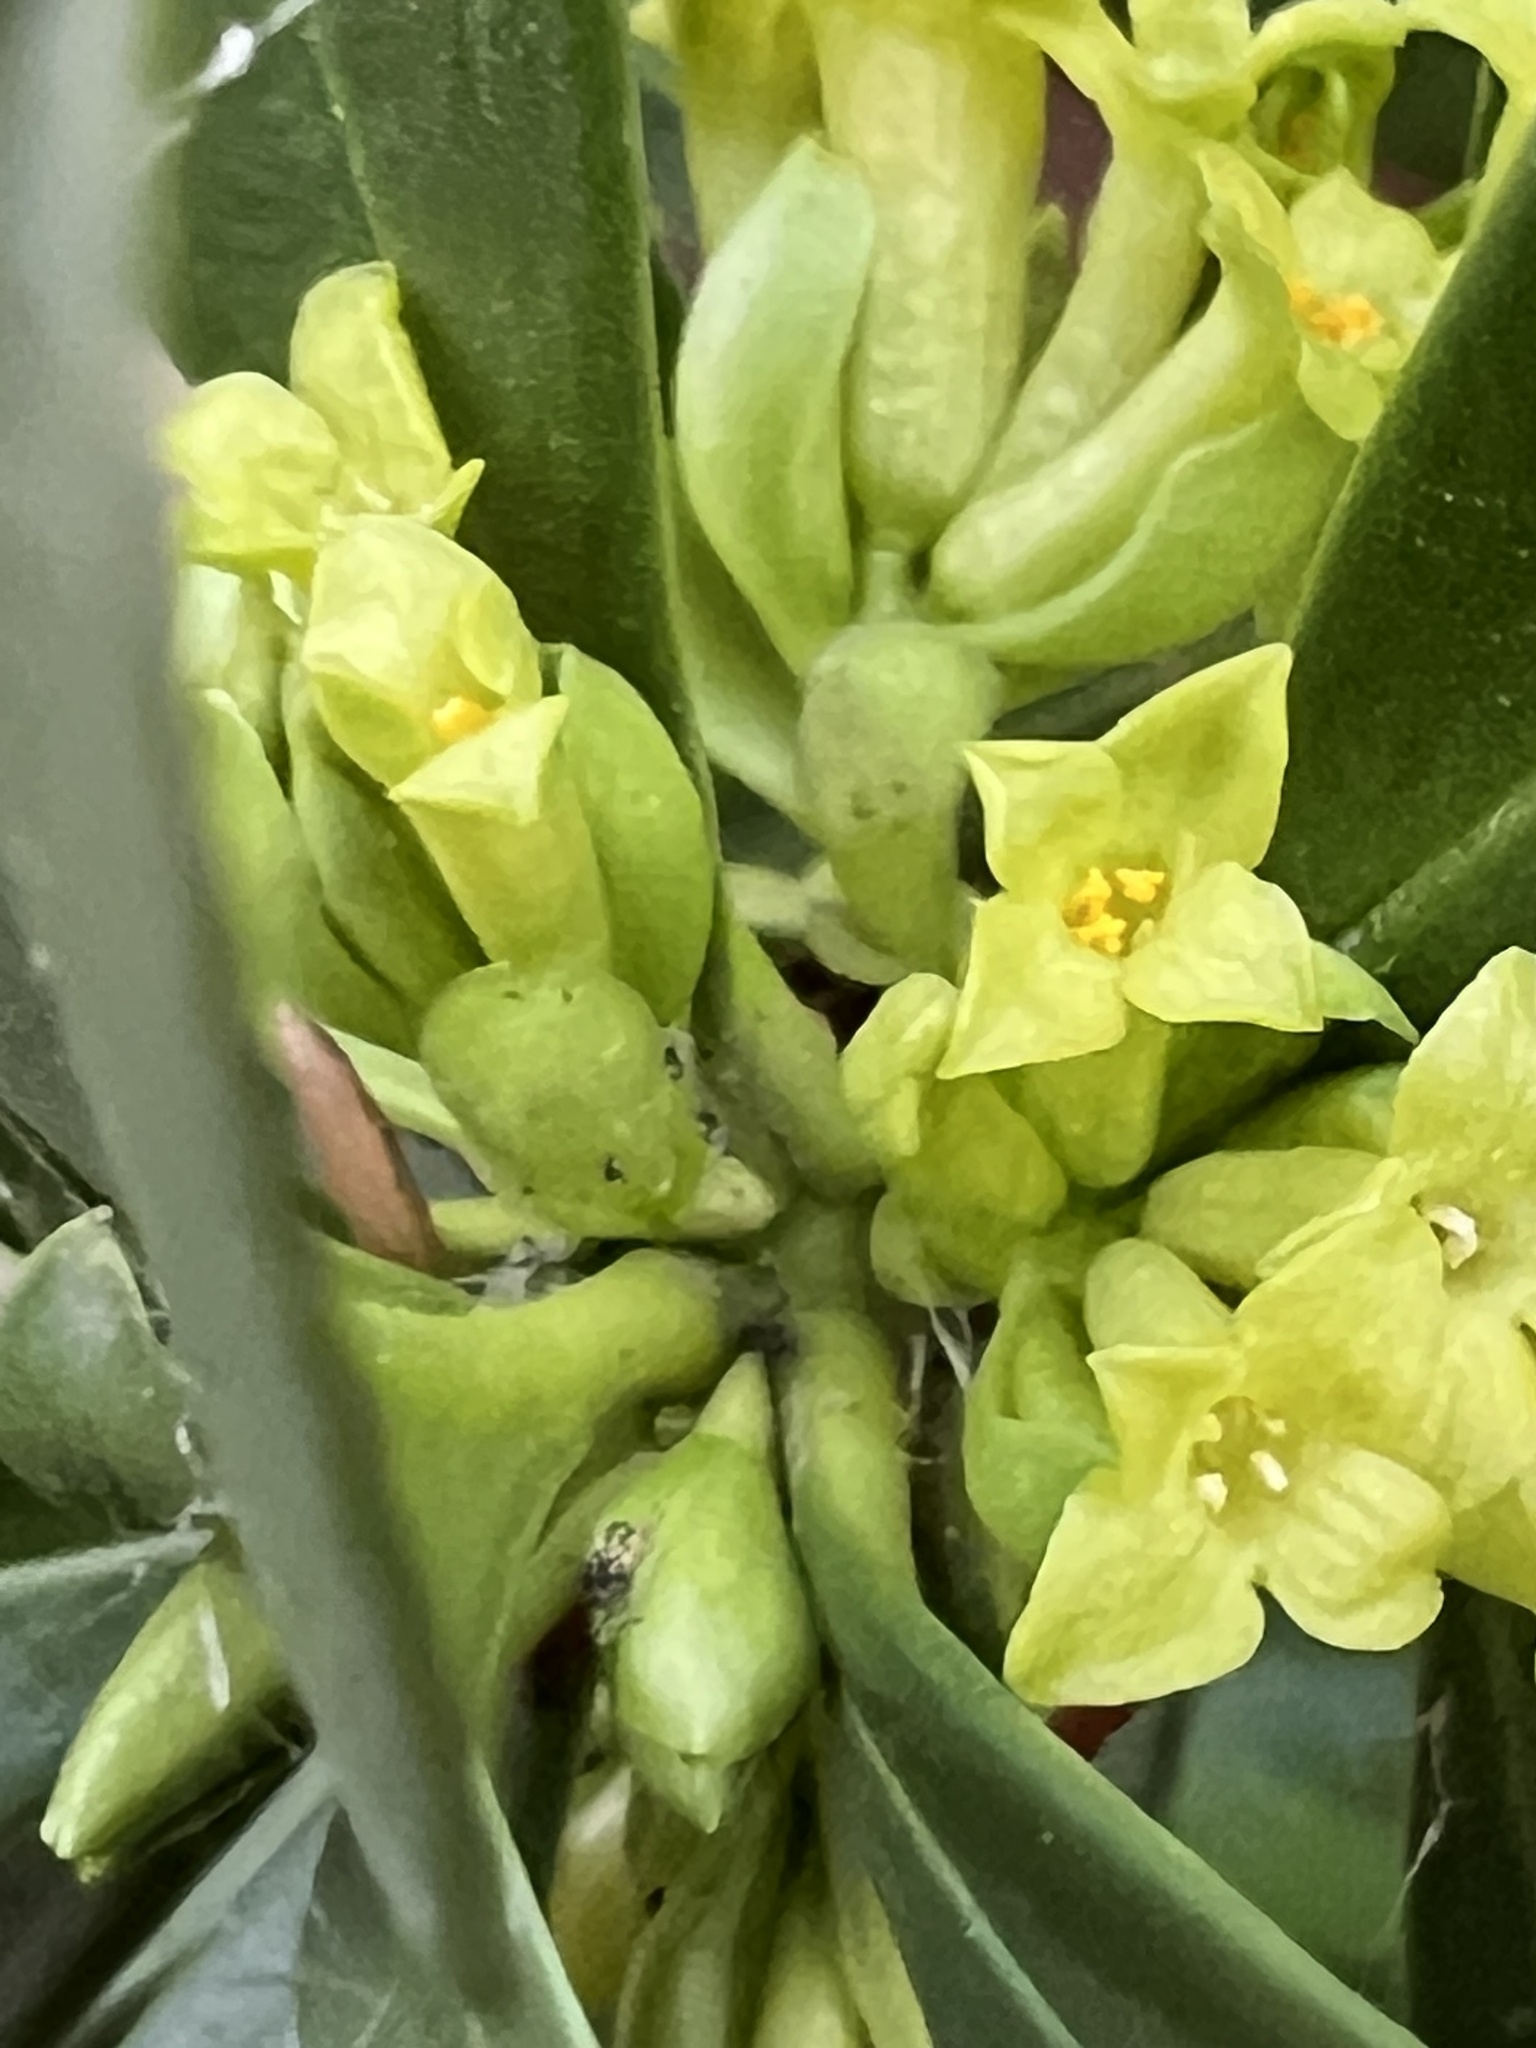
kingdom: Plantae
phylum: Tracheophyta
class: Magnoliopsida
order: Malvales
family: Thymelaeaceae
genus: Daphne
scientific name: Daphne laureola
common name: Spurge-laurel
